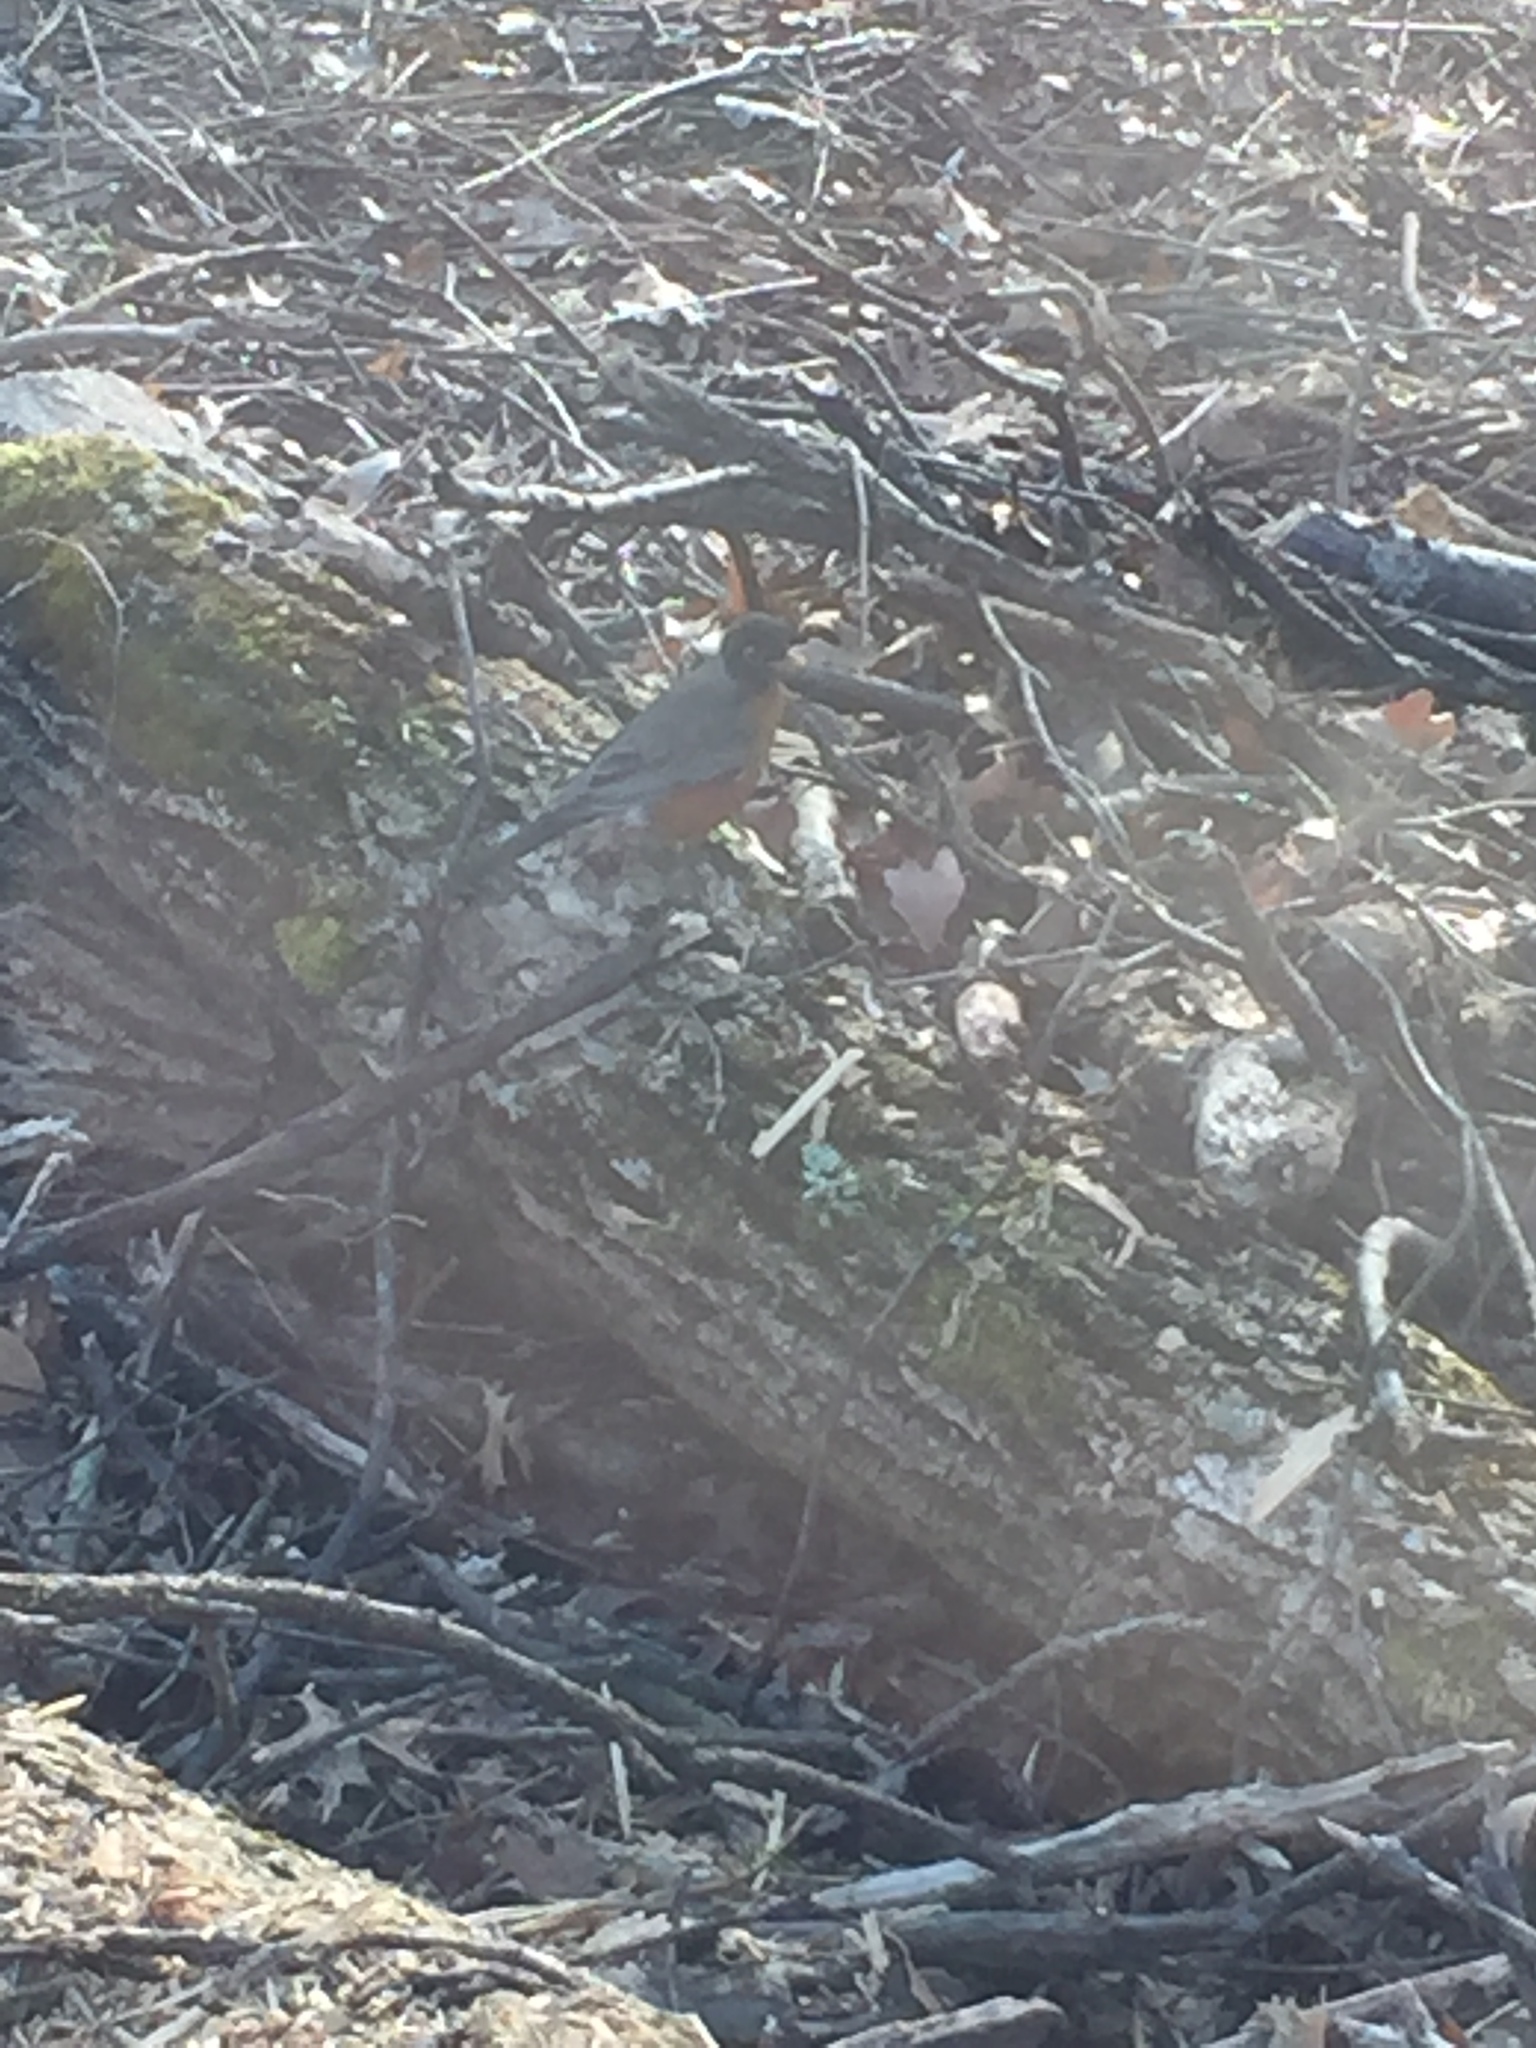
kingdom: Animalia
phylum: Chordata
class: Aves
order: Passeriformes
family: Turdidae
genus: Turdus
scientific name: Turdus migratorius
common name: American robin
